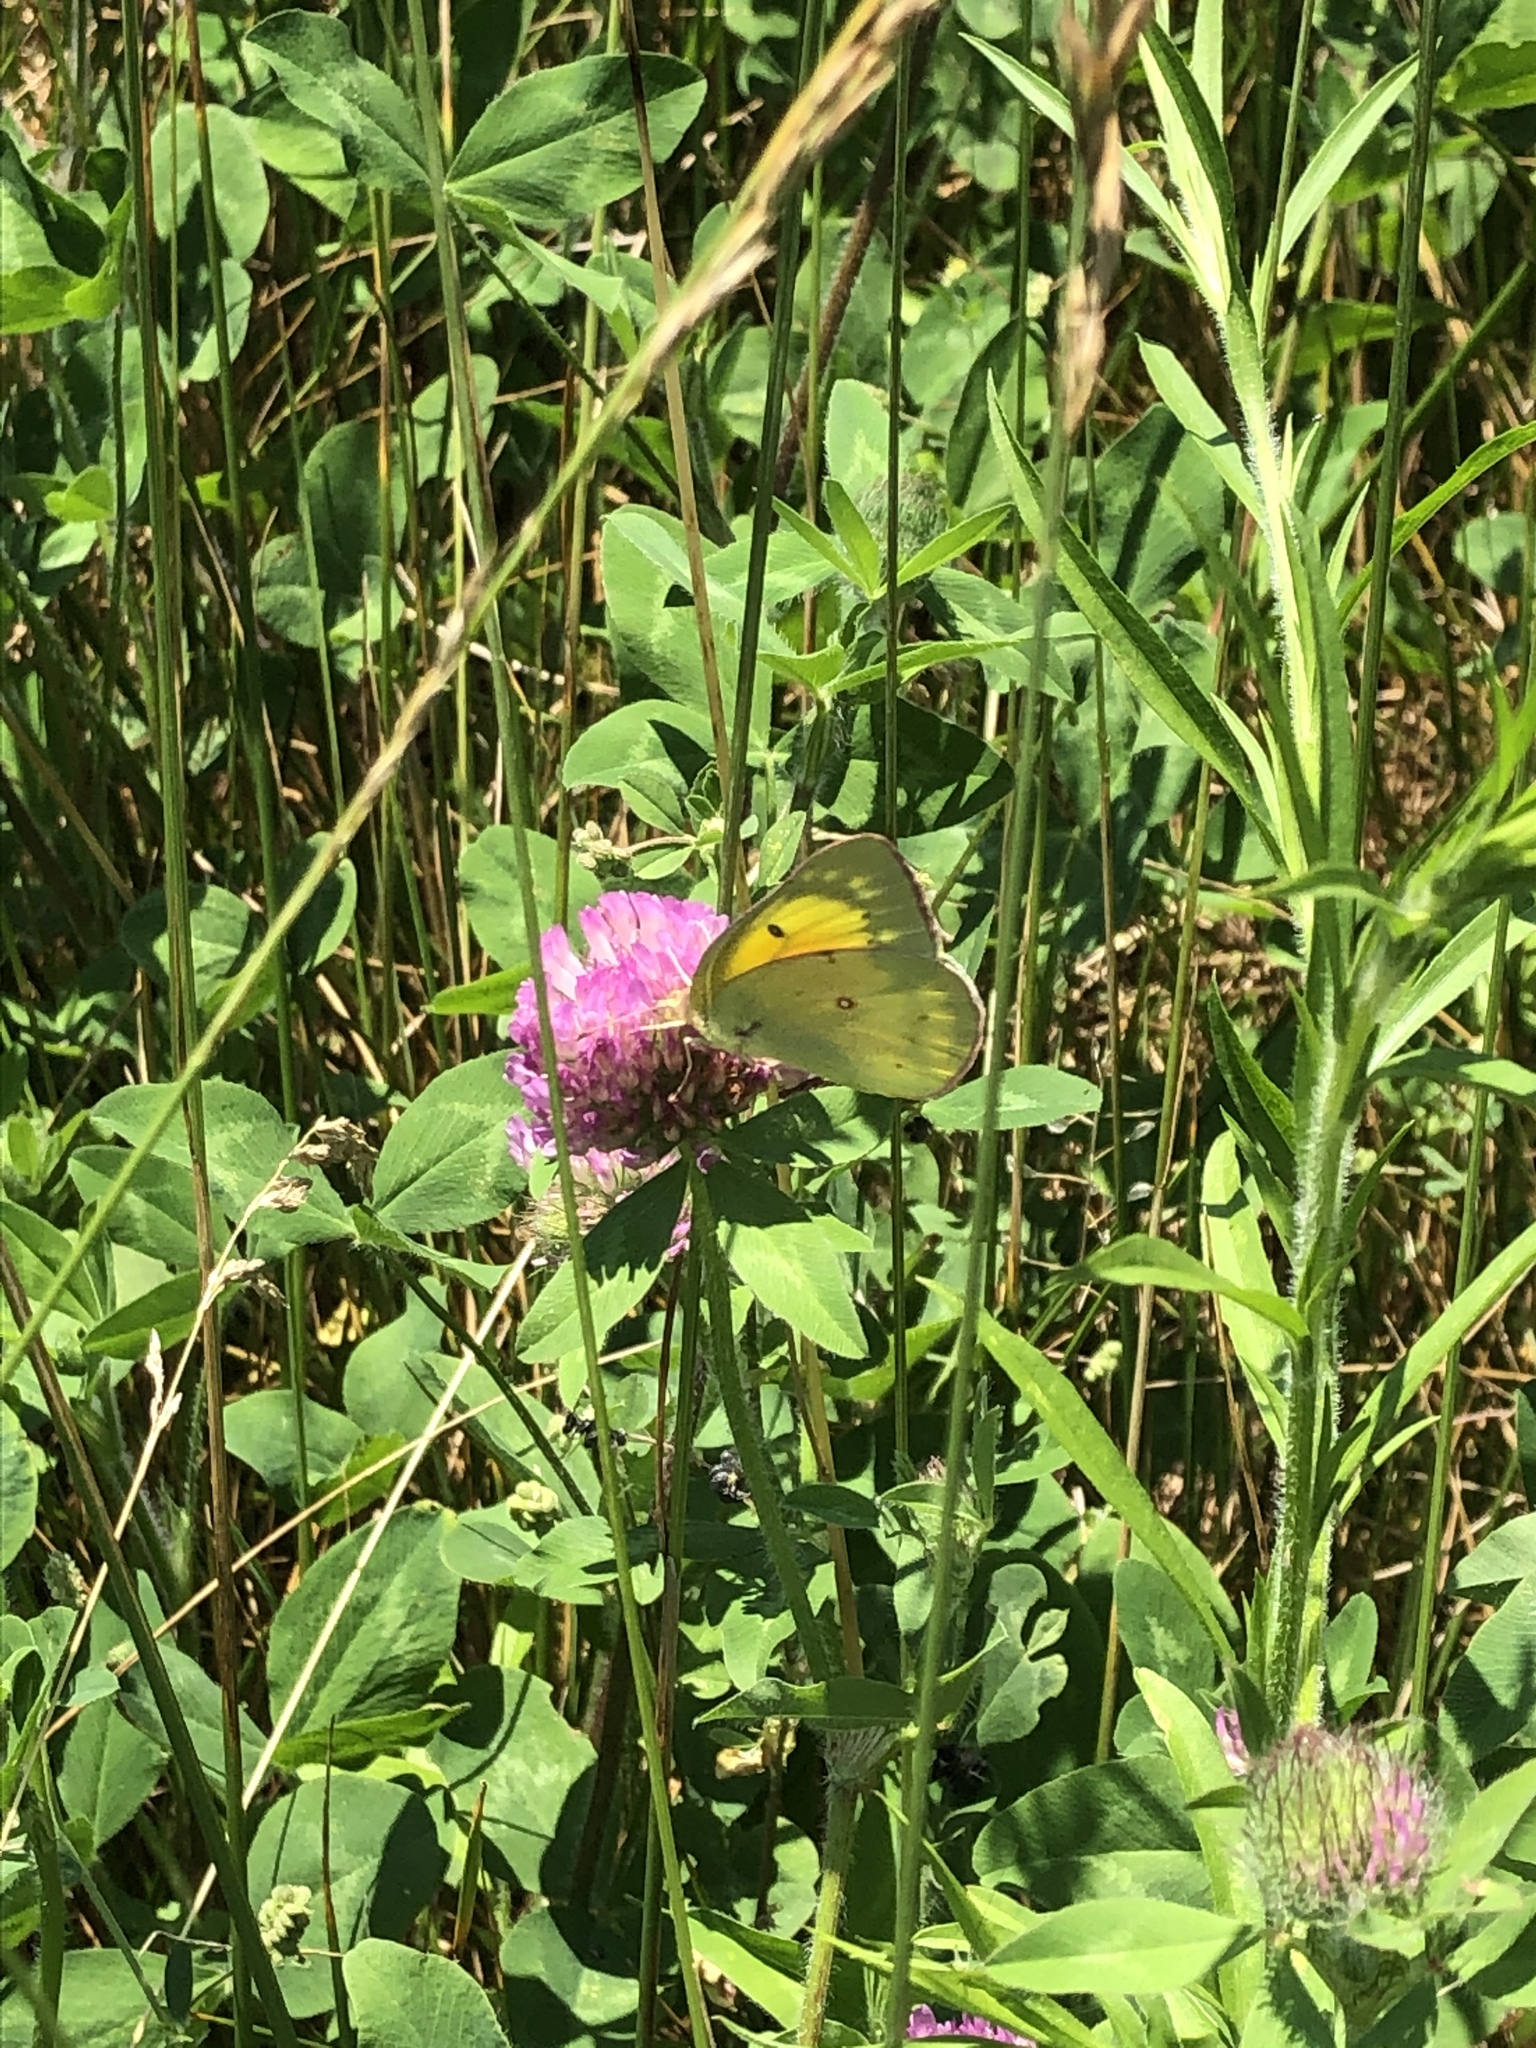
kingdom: Animalia
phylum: Arthropoda
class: Insecta
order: Lepidoptera
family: Pieridae
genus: Colias
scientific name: Colias eurytheme
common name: Alfalfa butterfly
